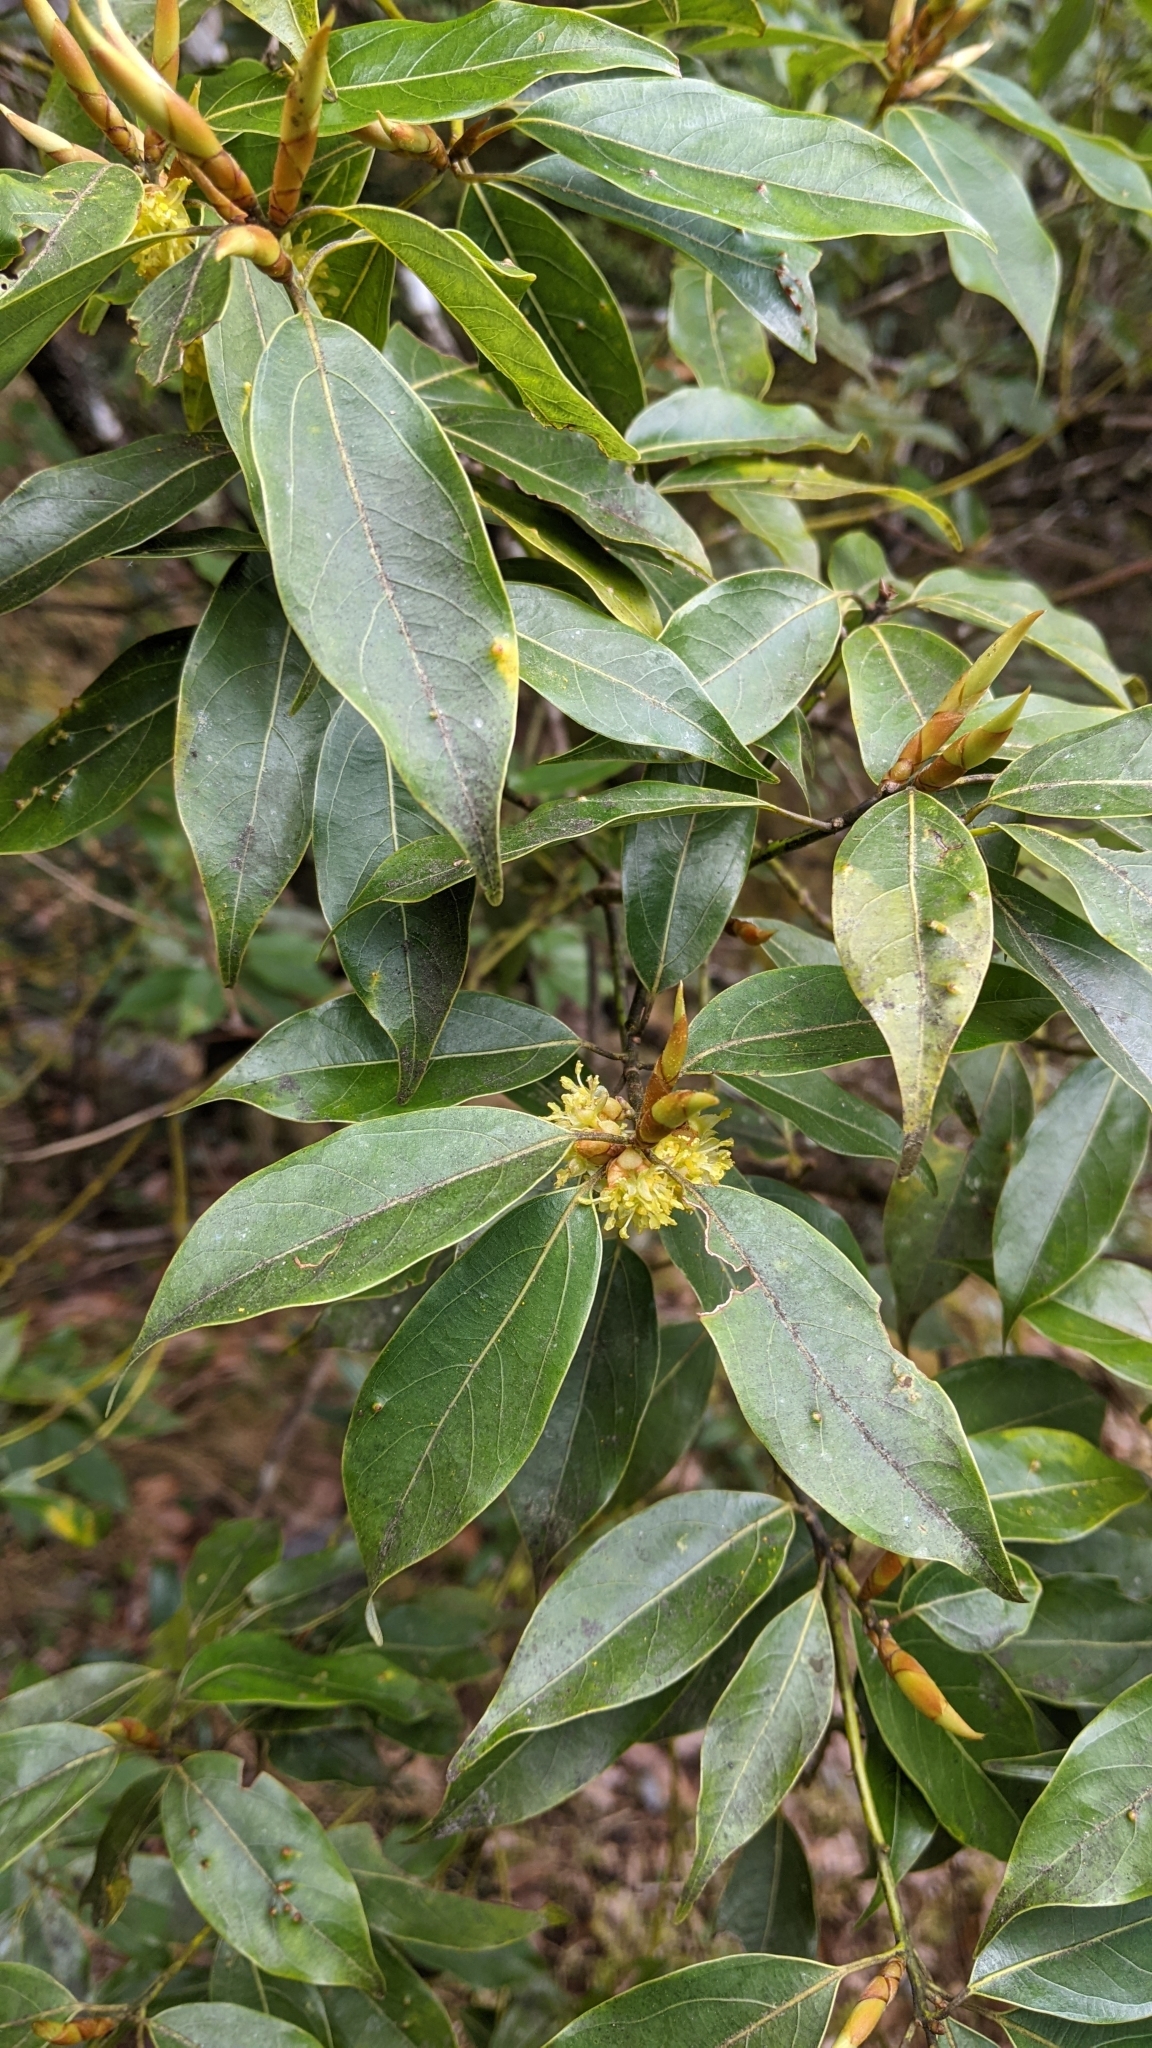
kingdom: Plantae
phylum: Tracheophyta
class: Magnoliopsida
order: Laurales
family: Lauraceae
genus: Neolitsea
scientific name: Neolitsea acuminatissima
